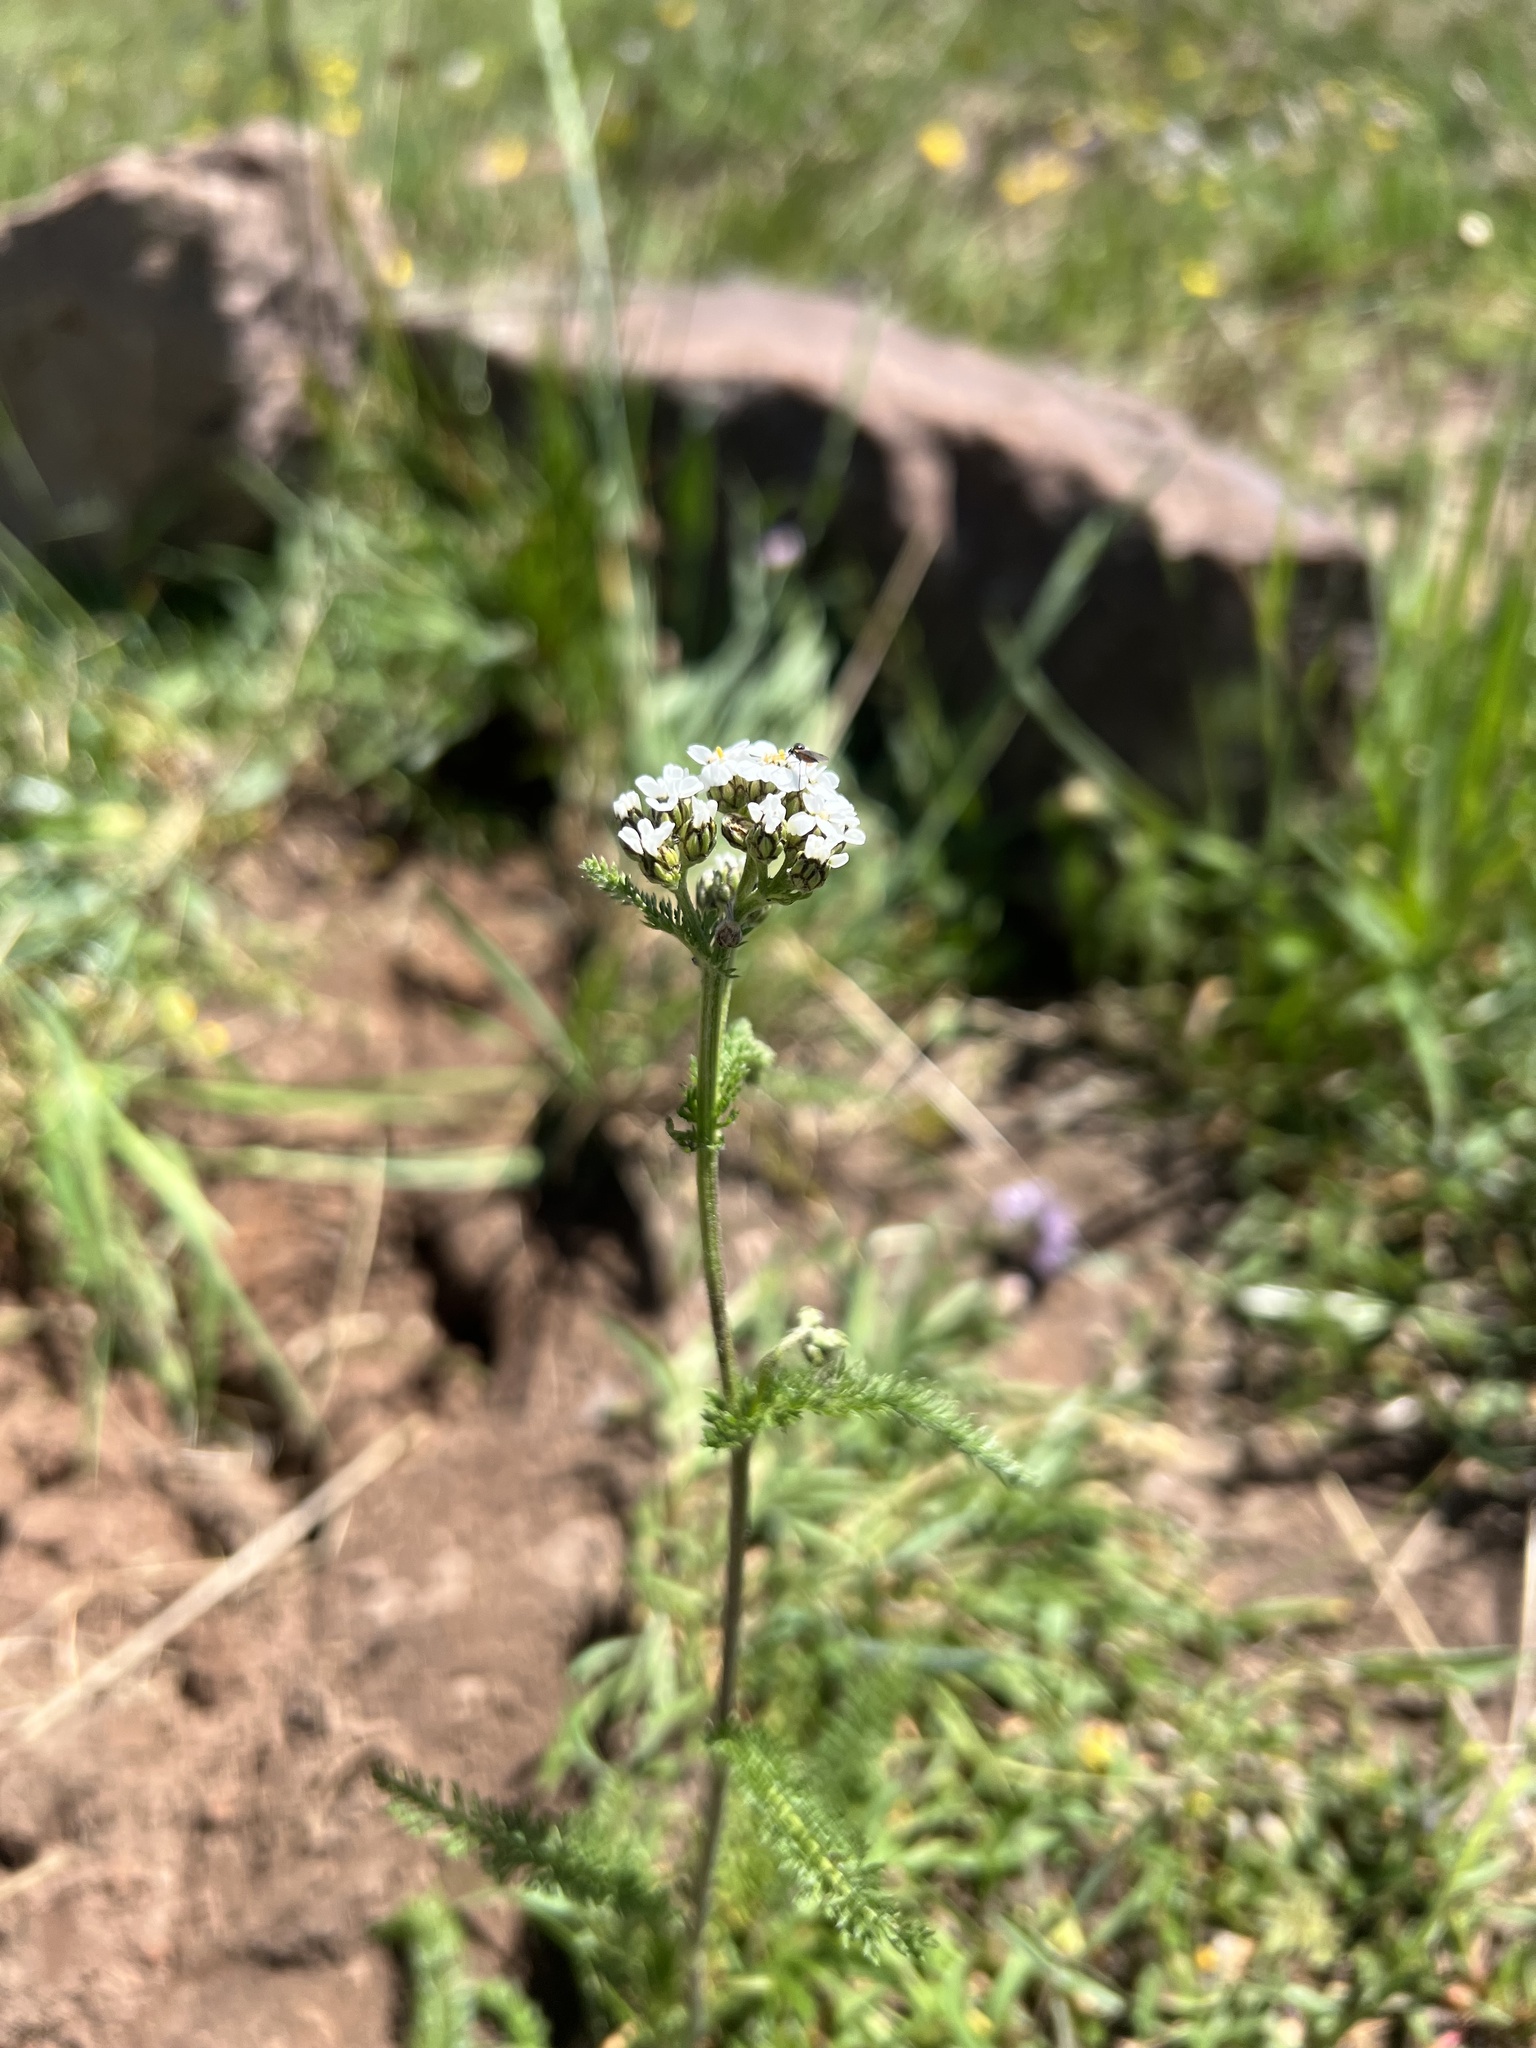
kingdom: Plantae
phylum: Tracheophyta
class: Magnoliopsida
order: Asterales
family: Asteraceae
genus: Achillea
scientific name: Achillea millefolium
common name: Yarrow
